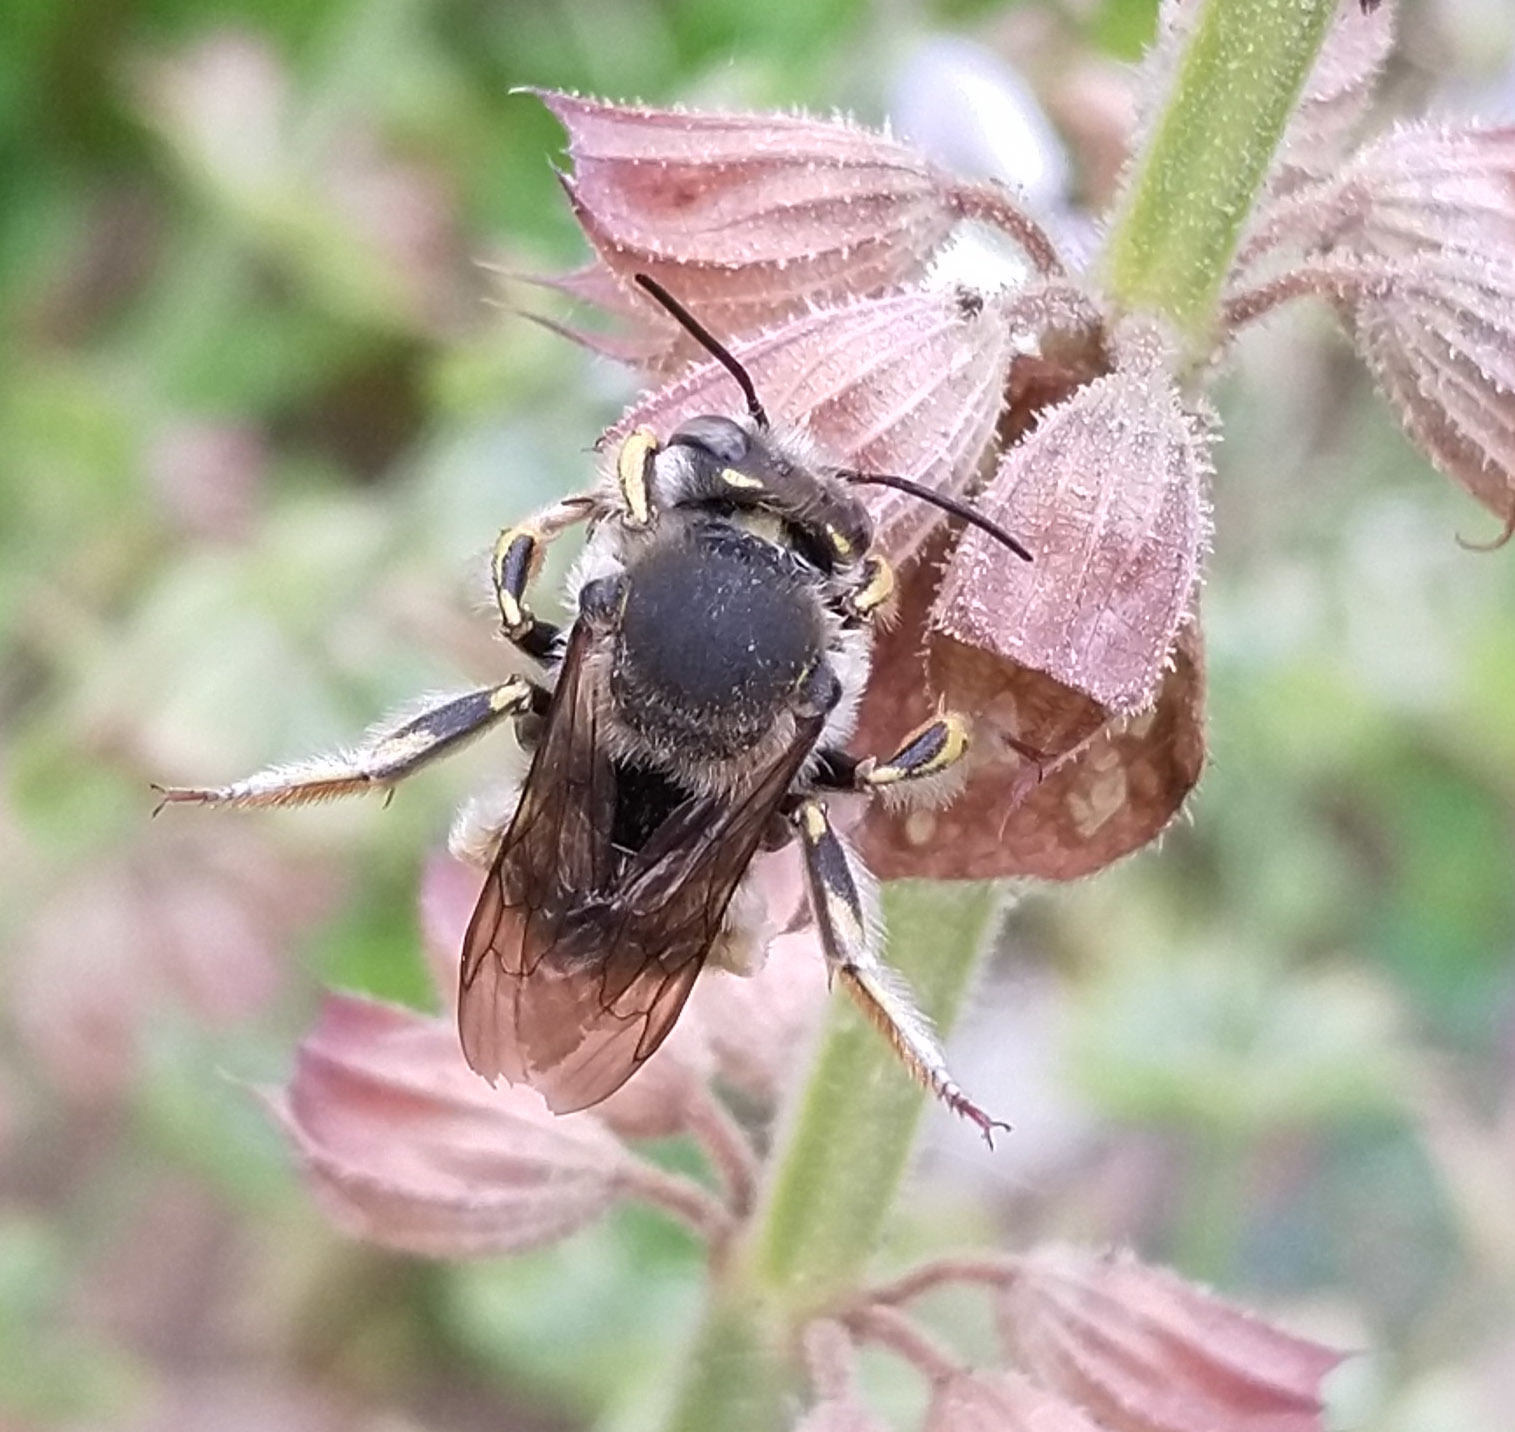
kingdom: Animalia
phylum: Arthropoda
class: Insecta
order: Hymenoptera
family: Megachilidae
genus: Anthidium
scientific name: Anthidium manicatum
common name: Wool carder bee
